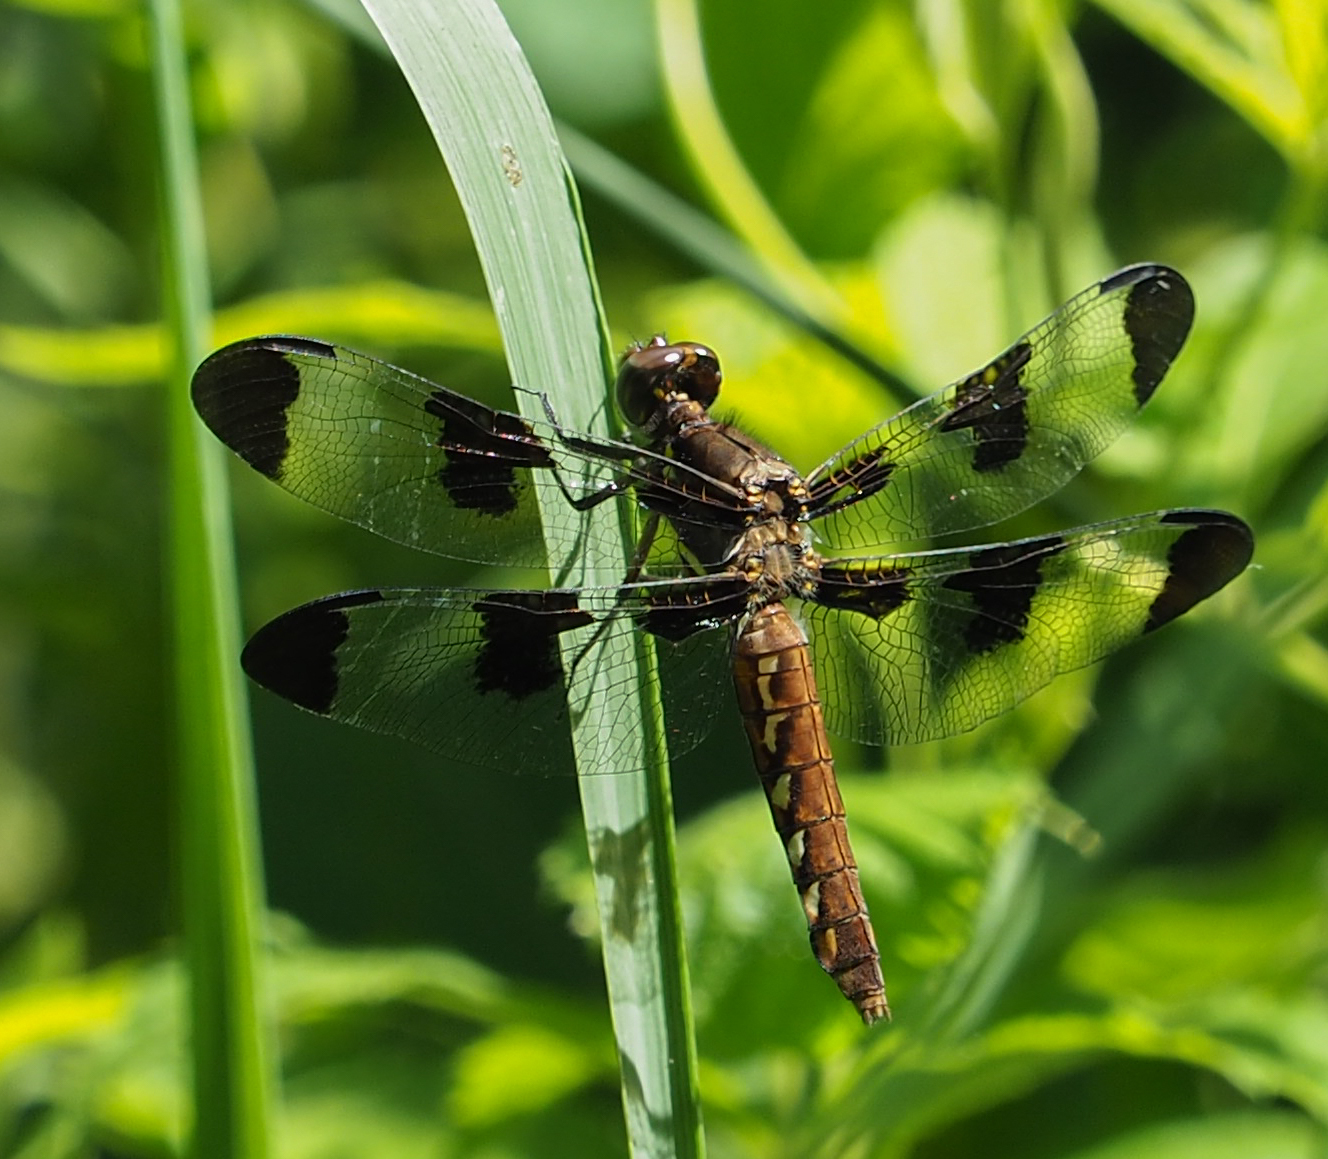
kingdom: Animalia
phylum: Arthropoda
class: Insecta
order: Odonata
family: Libellulidae
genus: Plathemis
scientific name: Plathemis lydia
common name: Common whitetail
